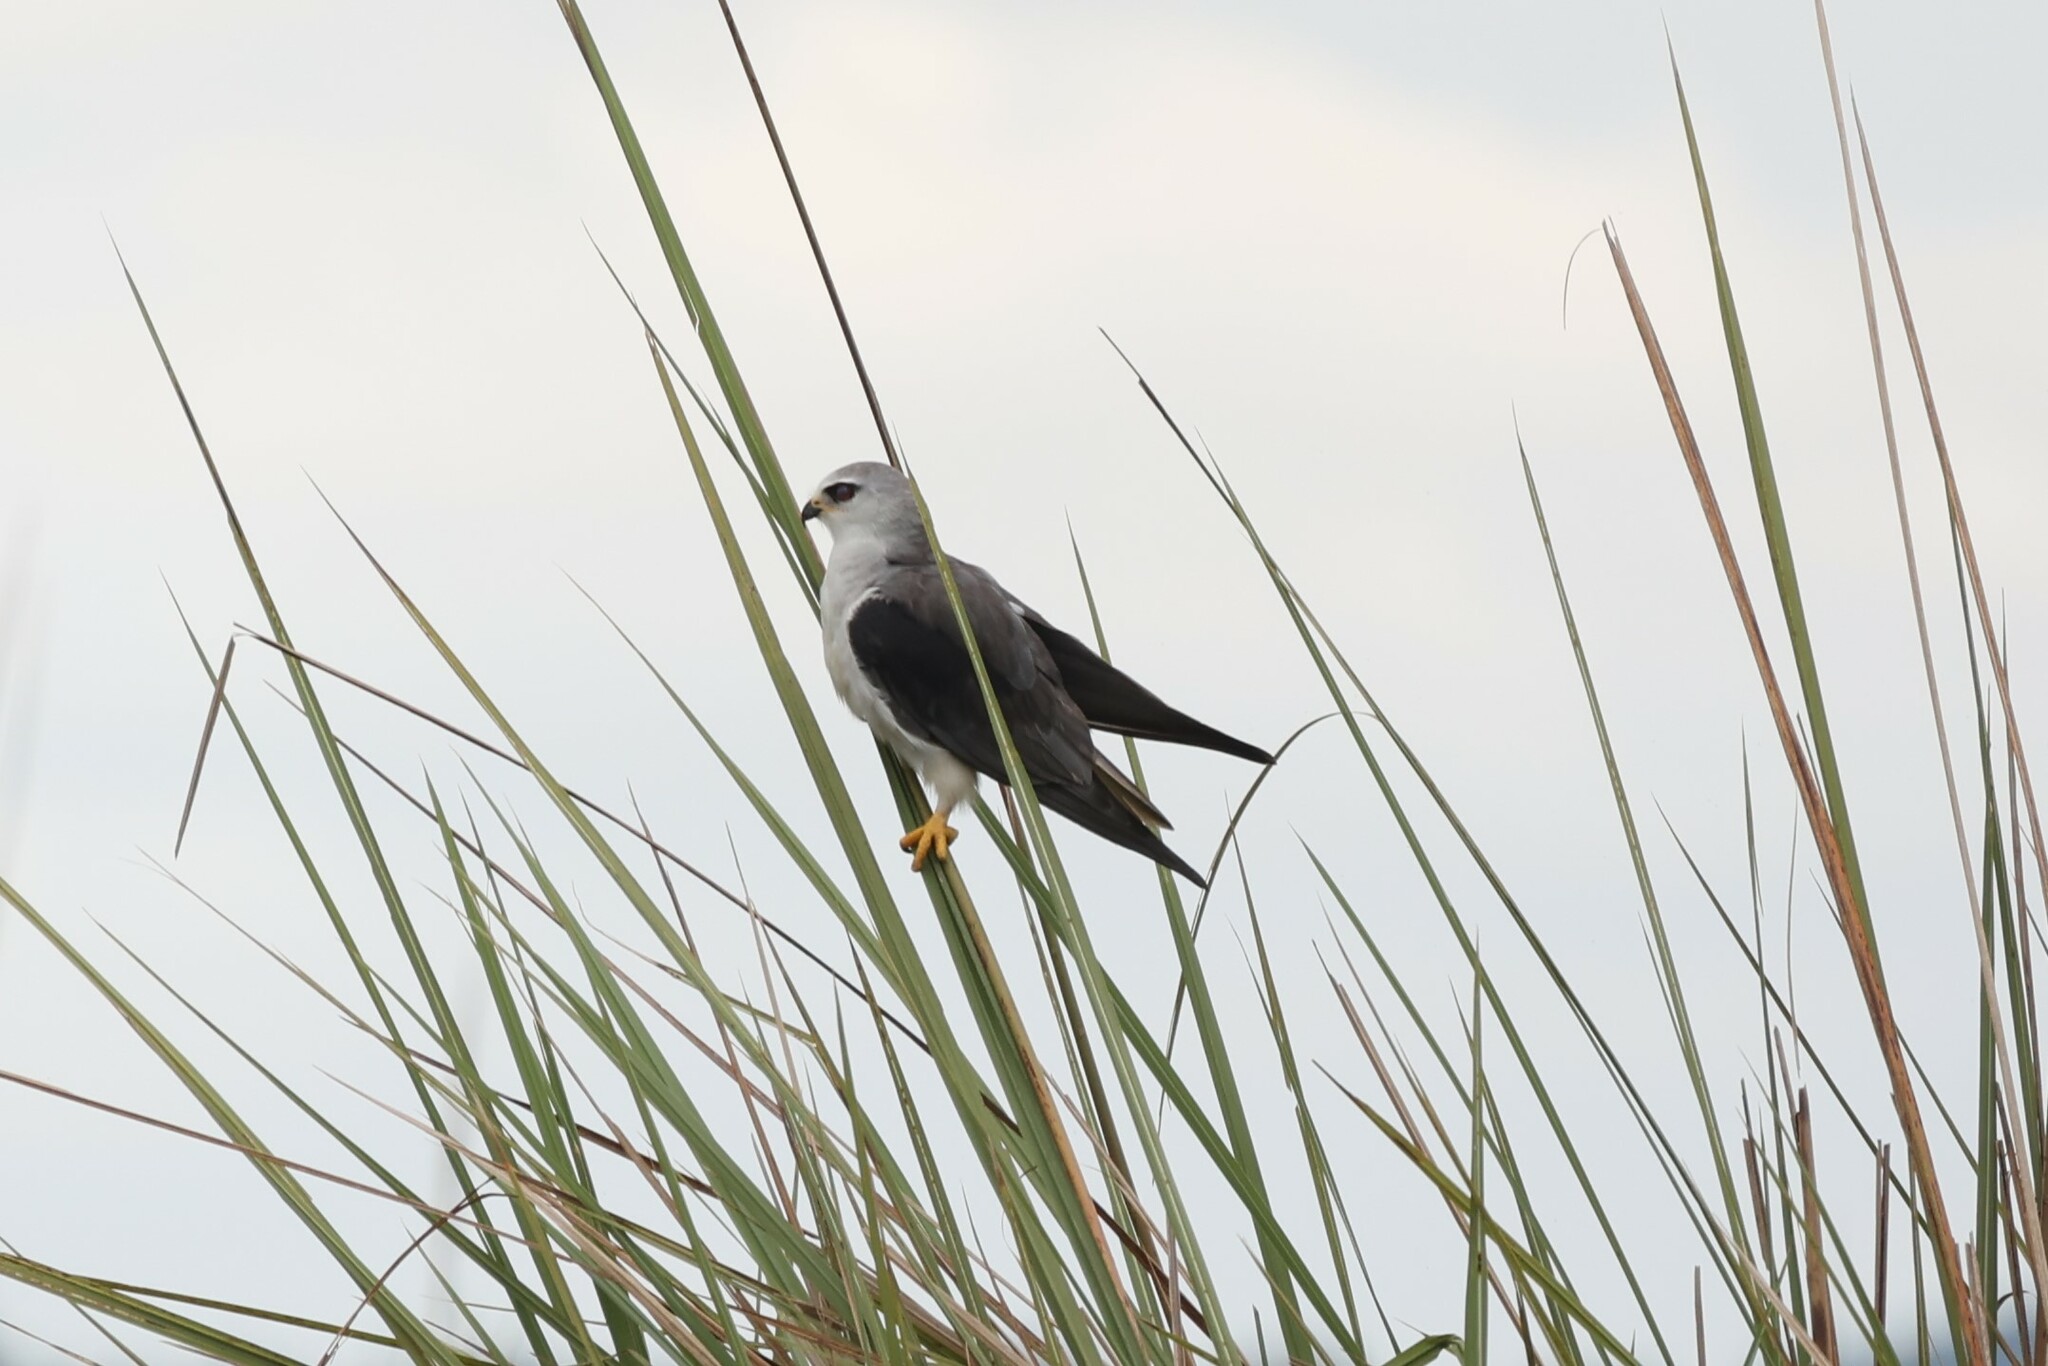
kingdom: Animalia
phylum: Chordata
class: Aves
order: Accipitriformes
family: Accipitridae
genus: Elanus
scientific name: Elanus caeruleus
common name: Black-winged kite
